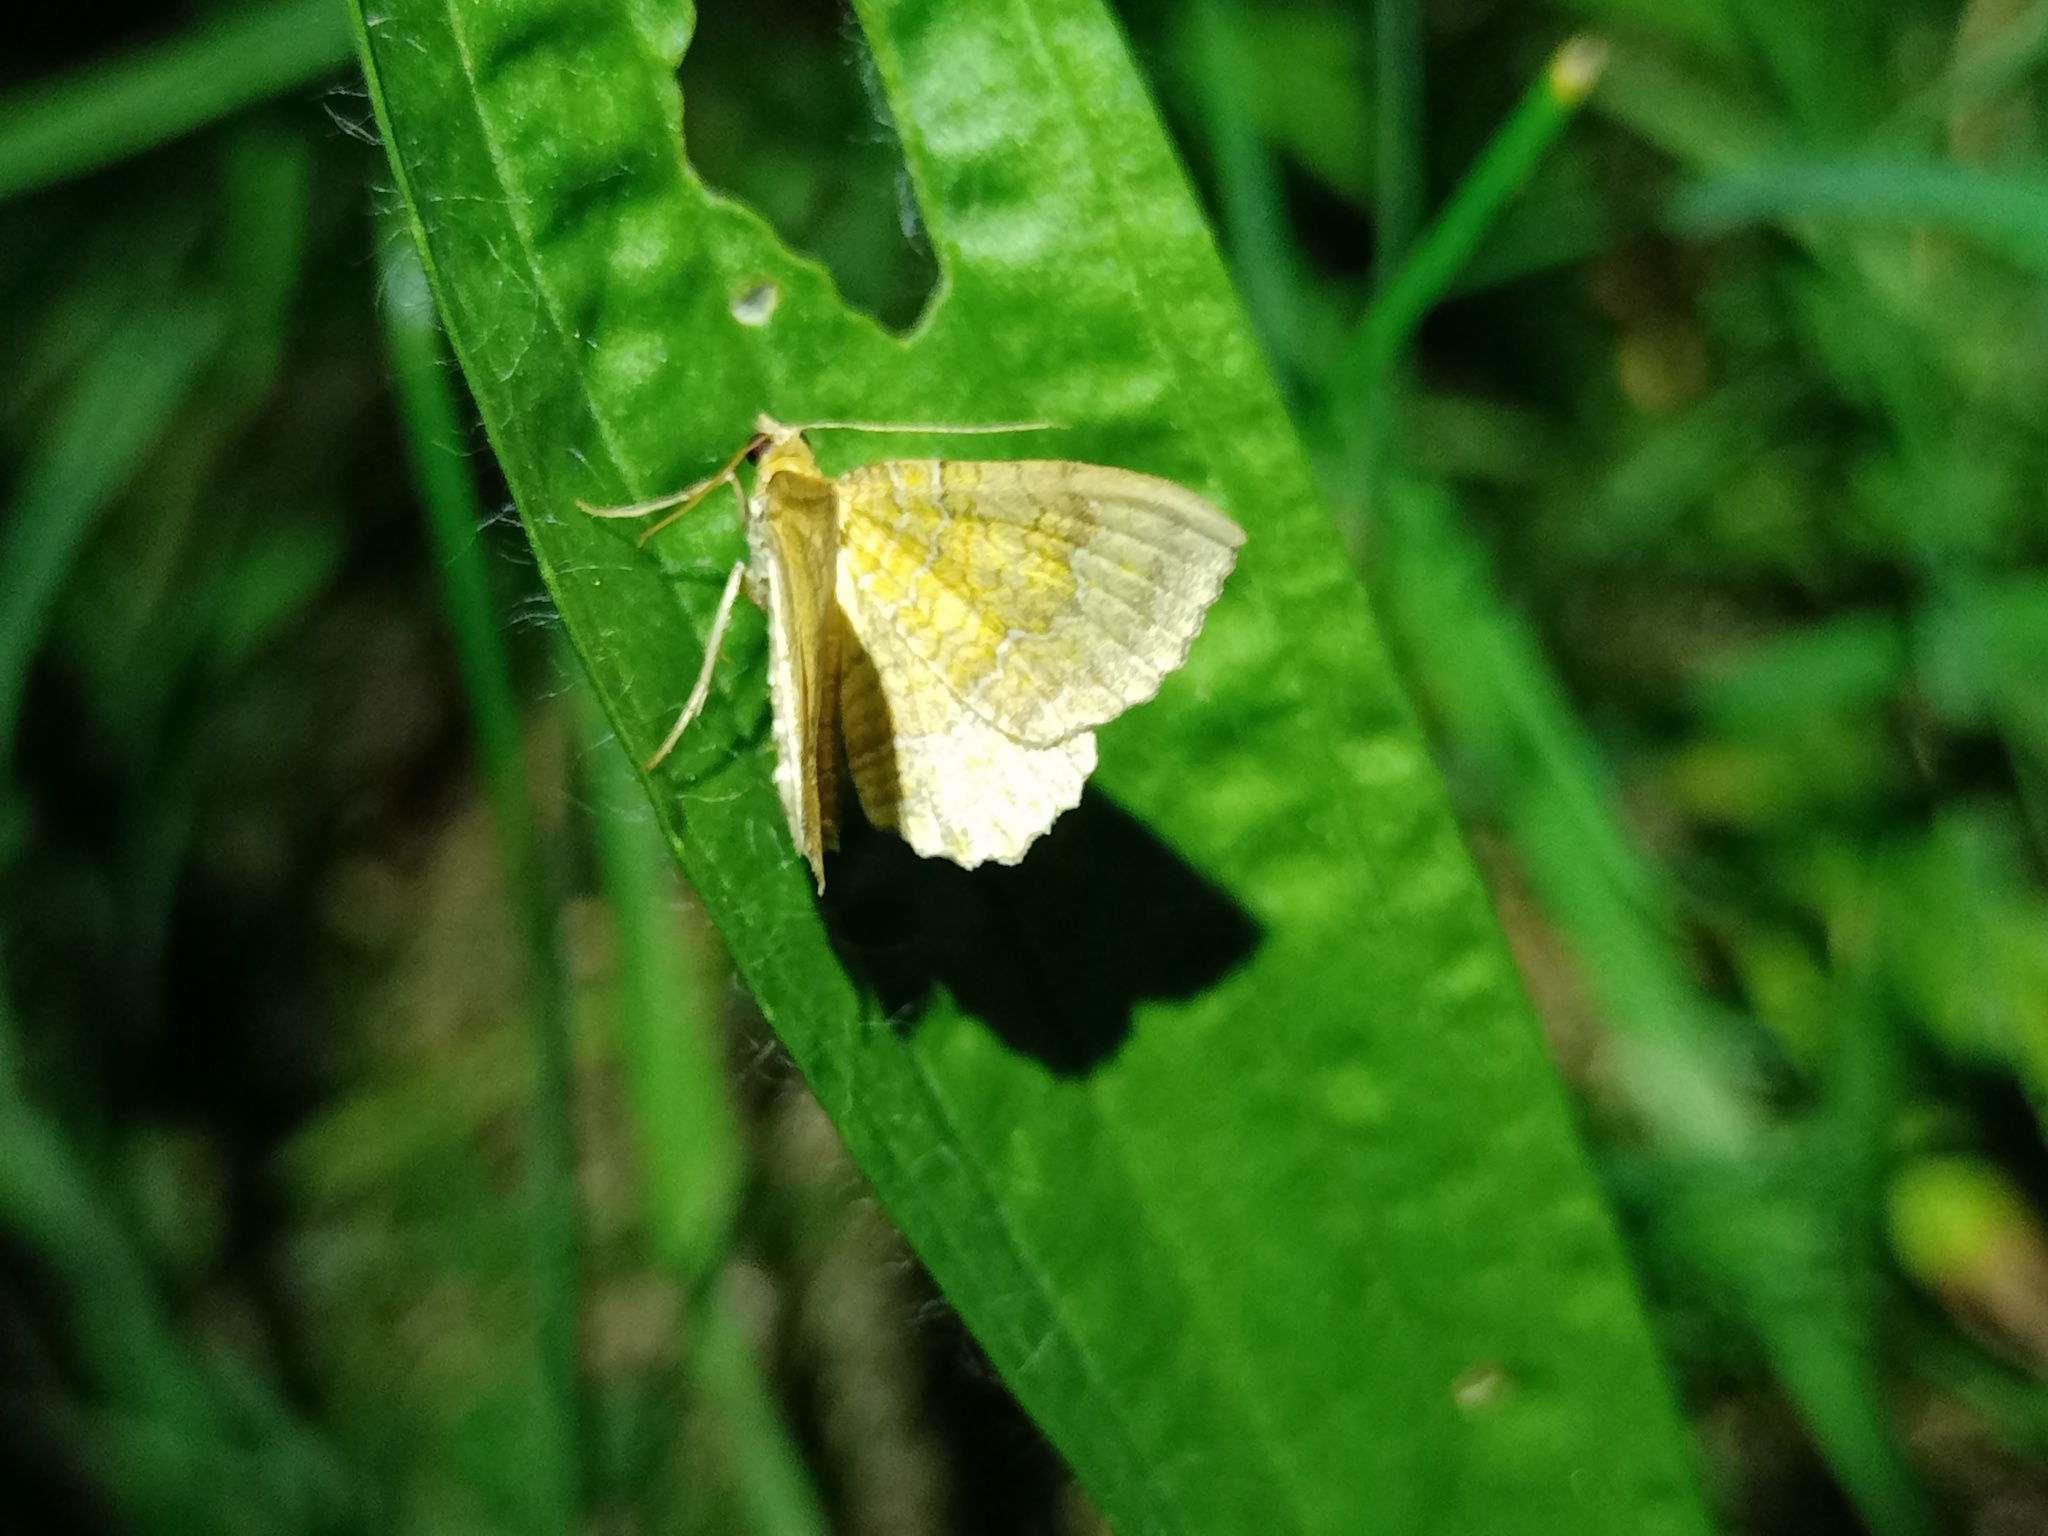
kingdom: Animalia
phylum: Arthropoda
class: Insecta
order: Lepidoptera
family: Geometridae
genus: Camptogramma
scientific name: Camptogramma bilineata
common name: Yellow shell
